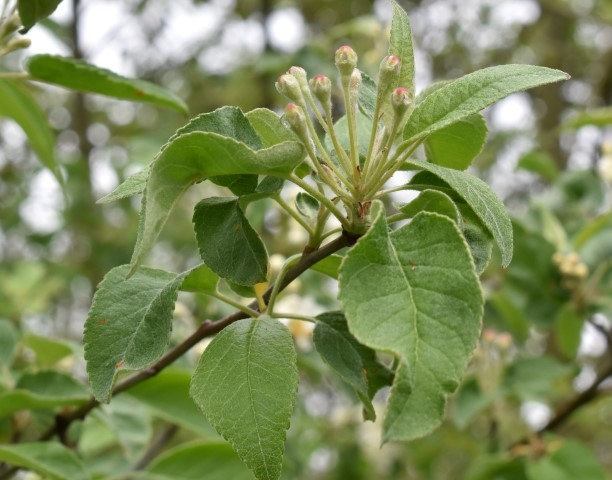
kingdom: Plantae
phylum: Tracheophyta
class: Magnoliopsida
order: Rosales
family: Rosaceae
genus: Malus
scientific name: Malus domestica
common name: Apple
